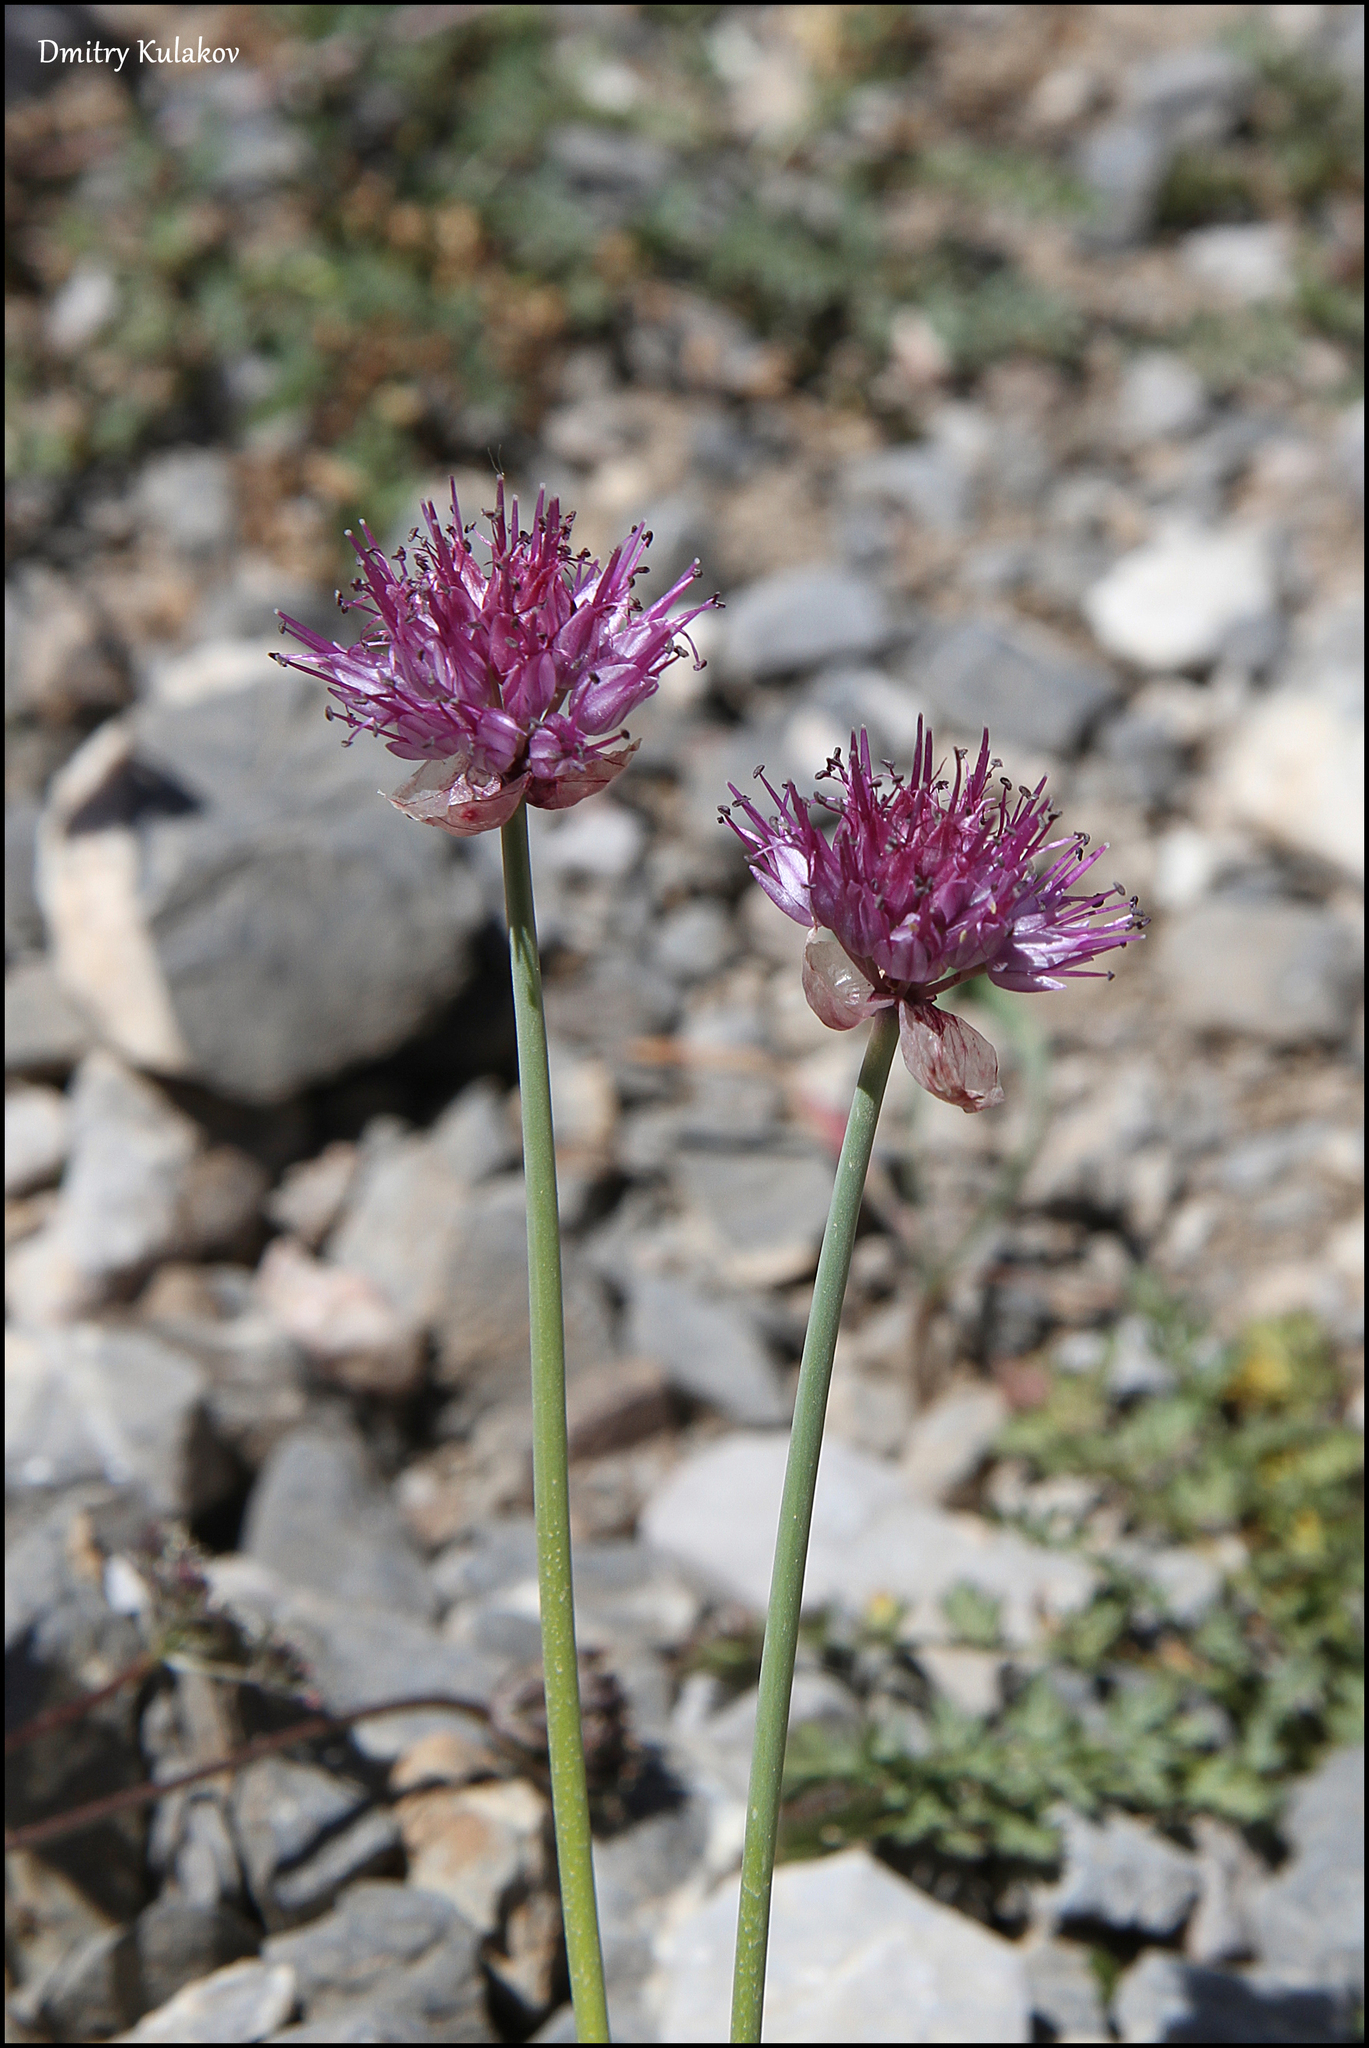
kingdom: Plantae
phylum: Tracheophyta
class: Liliopsida
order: Asparagales
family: Amaryllidaceae
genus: Allium
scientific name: Allium carolinianum
